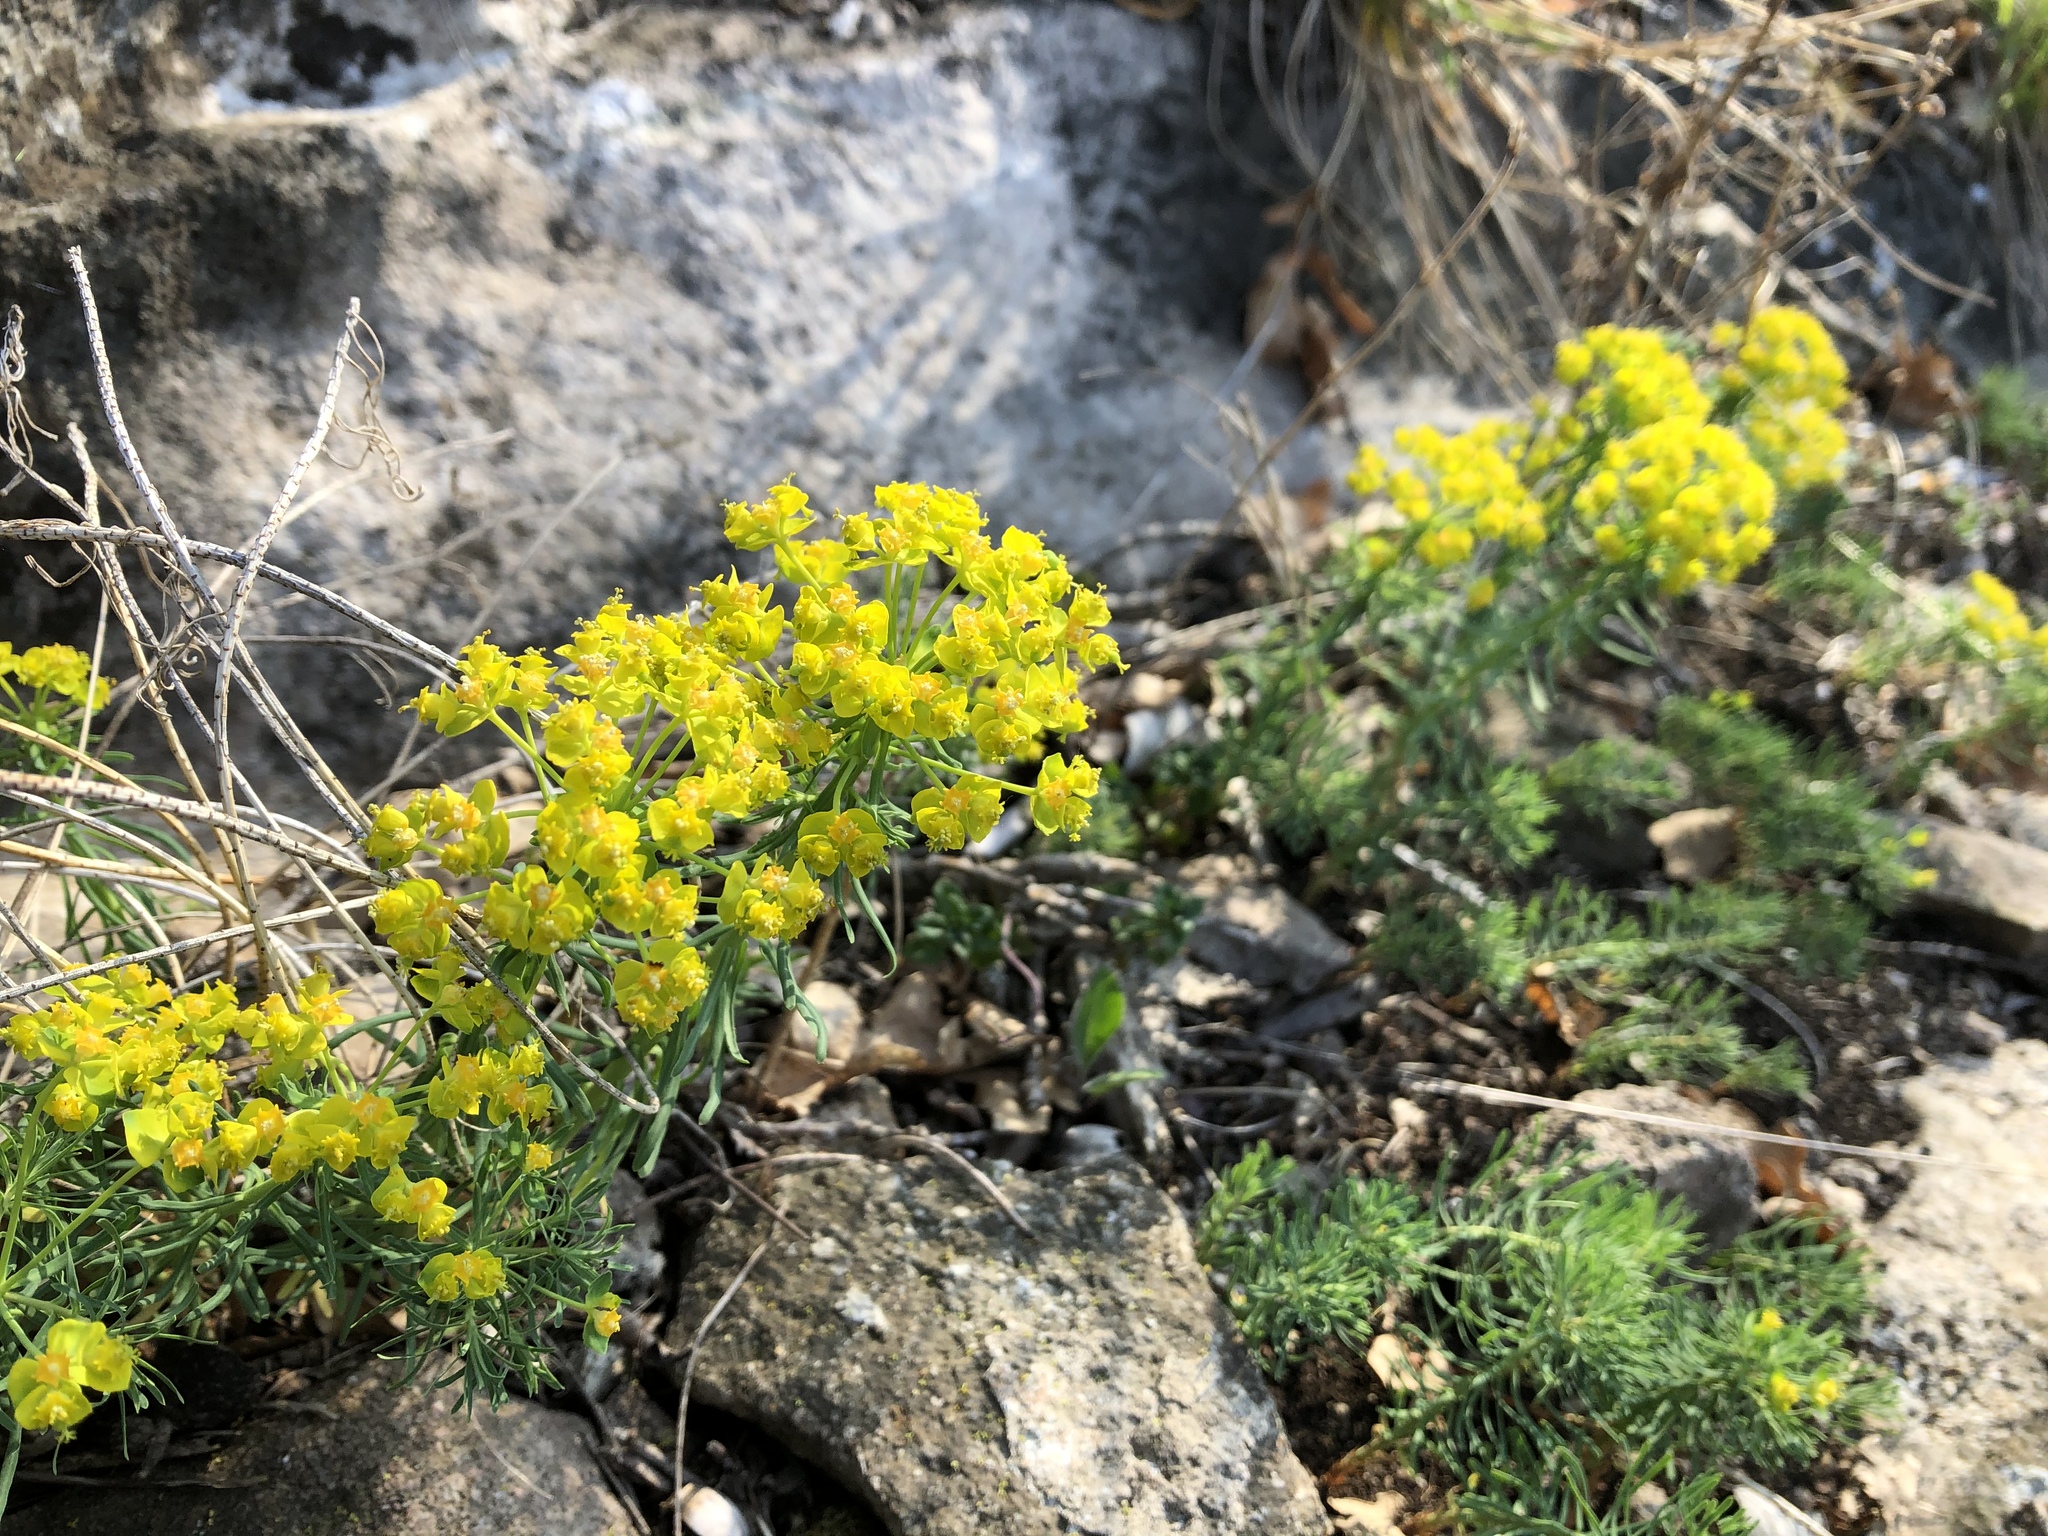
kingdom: Plantae
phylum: Tracheophyta
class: Magnoliopsida
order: Malpighiales
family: Euphorbiaceae
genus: Euphorbia
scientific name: Euphorbia cyparissias
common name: Cypress spurge
